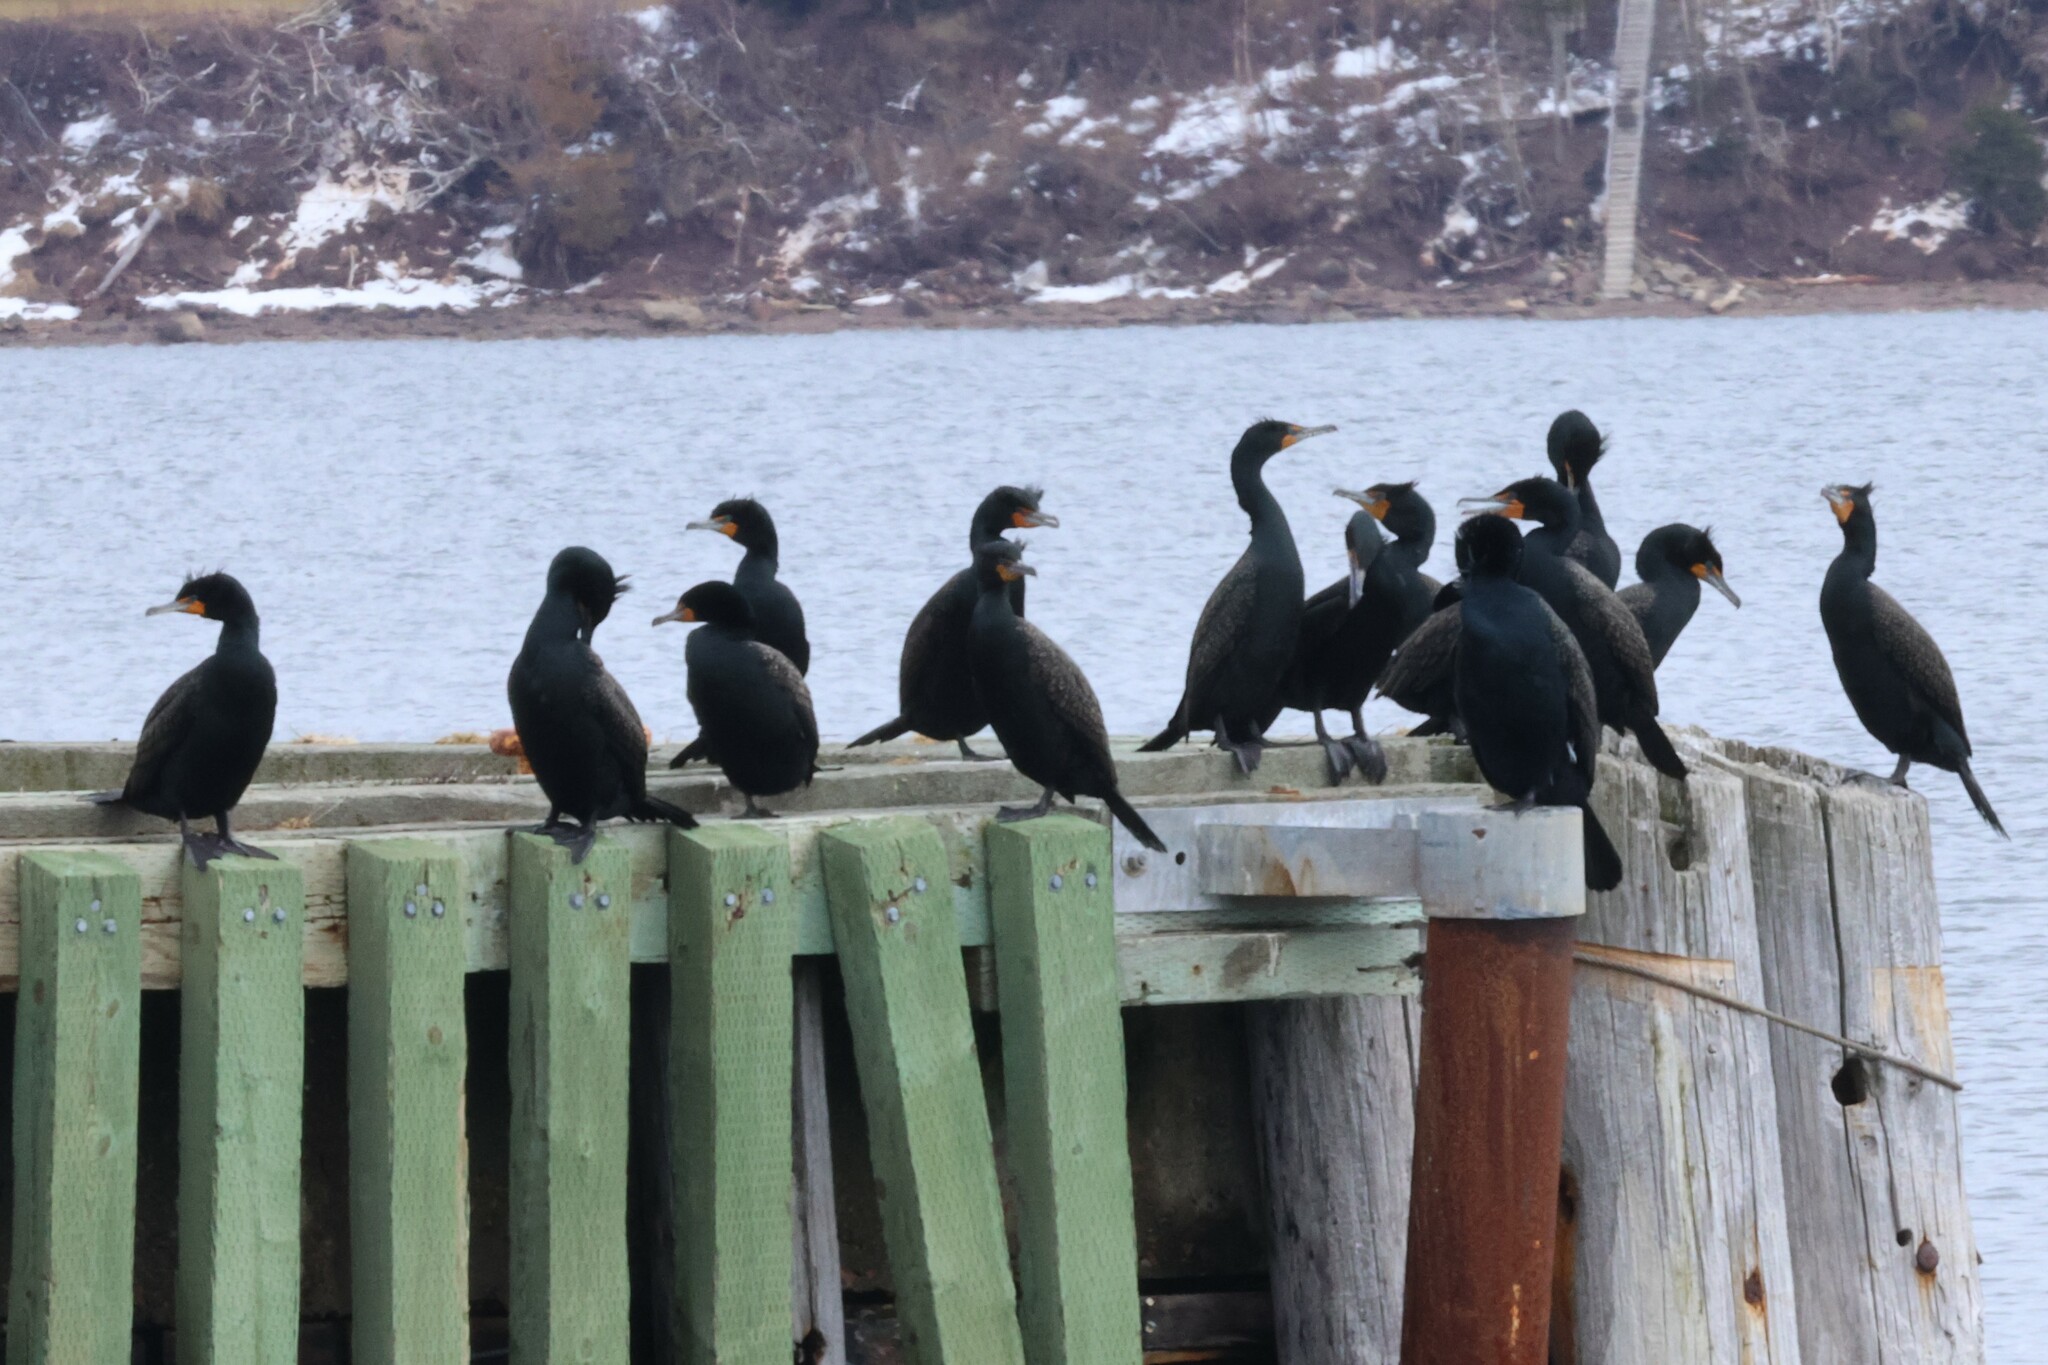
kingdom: Animalia
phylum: Chordata
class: Aves
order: Suliformes
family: Phalacrocoracidae
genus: Phalacrocorax
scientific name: Phalacrocorax auritus
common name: Double-crested cormorant
